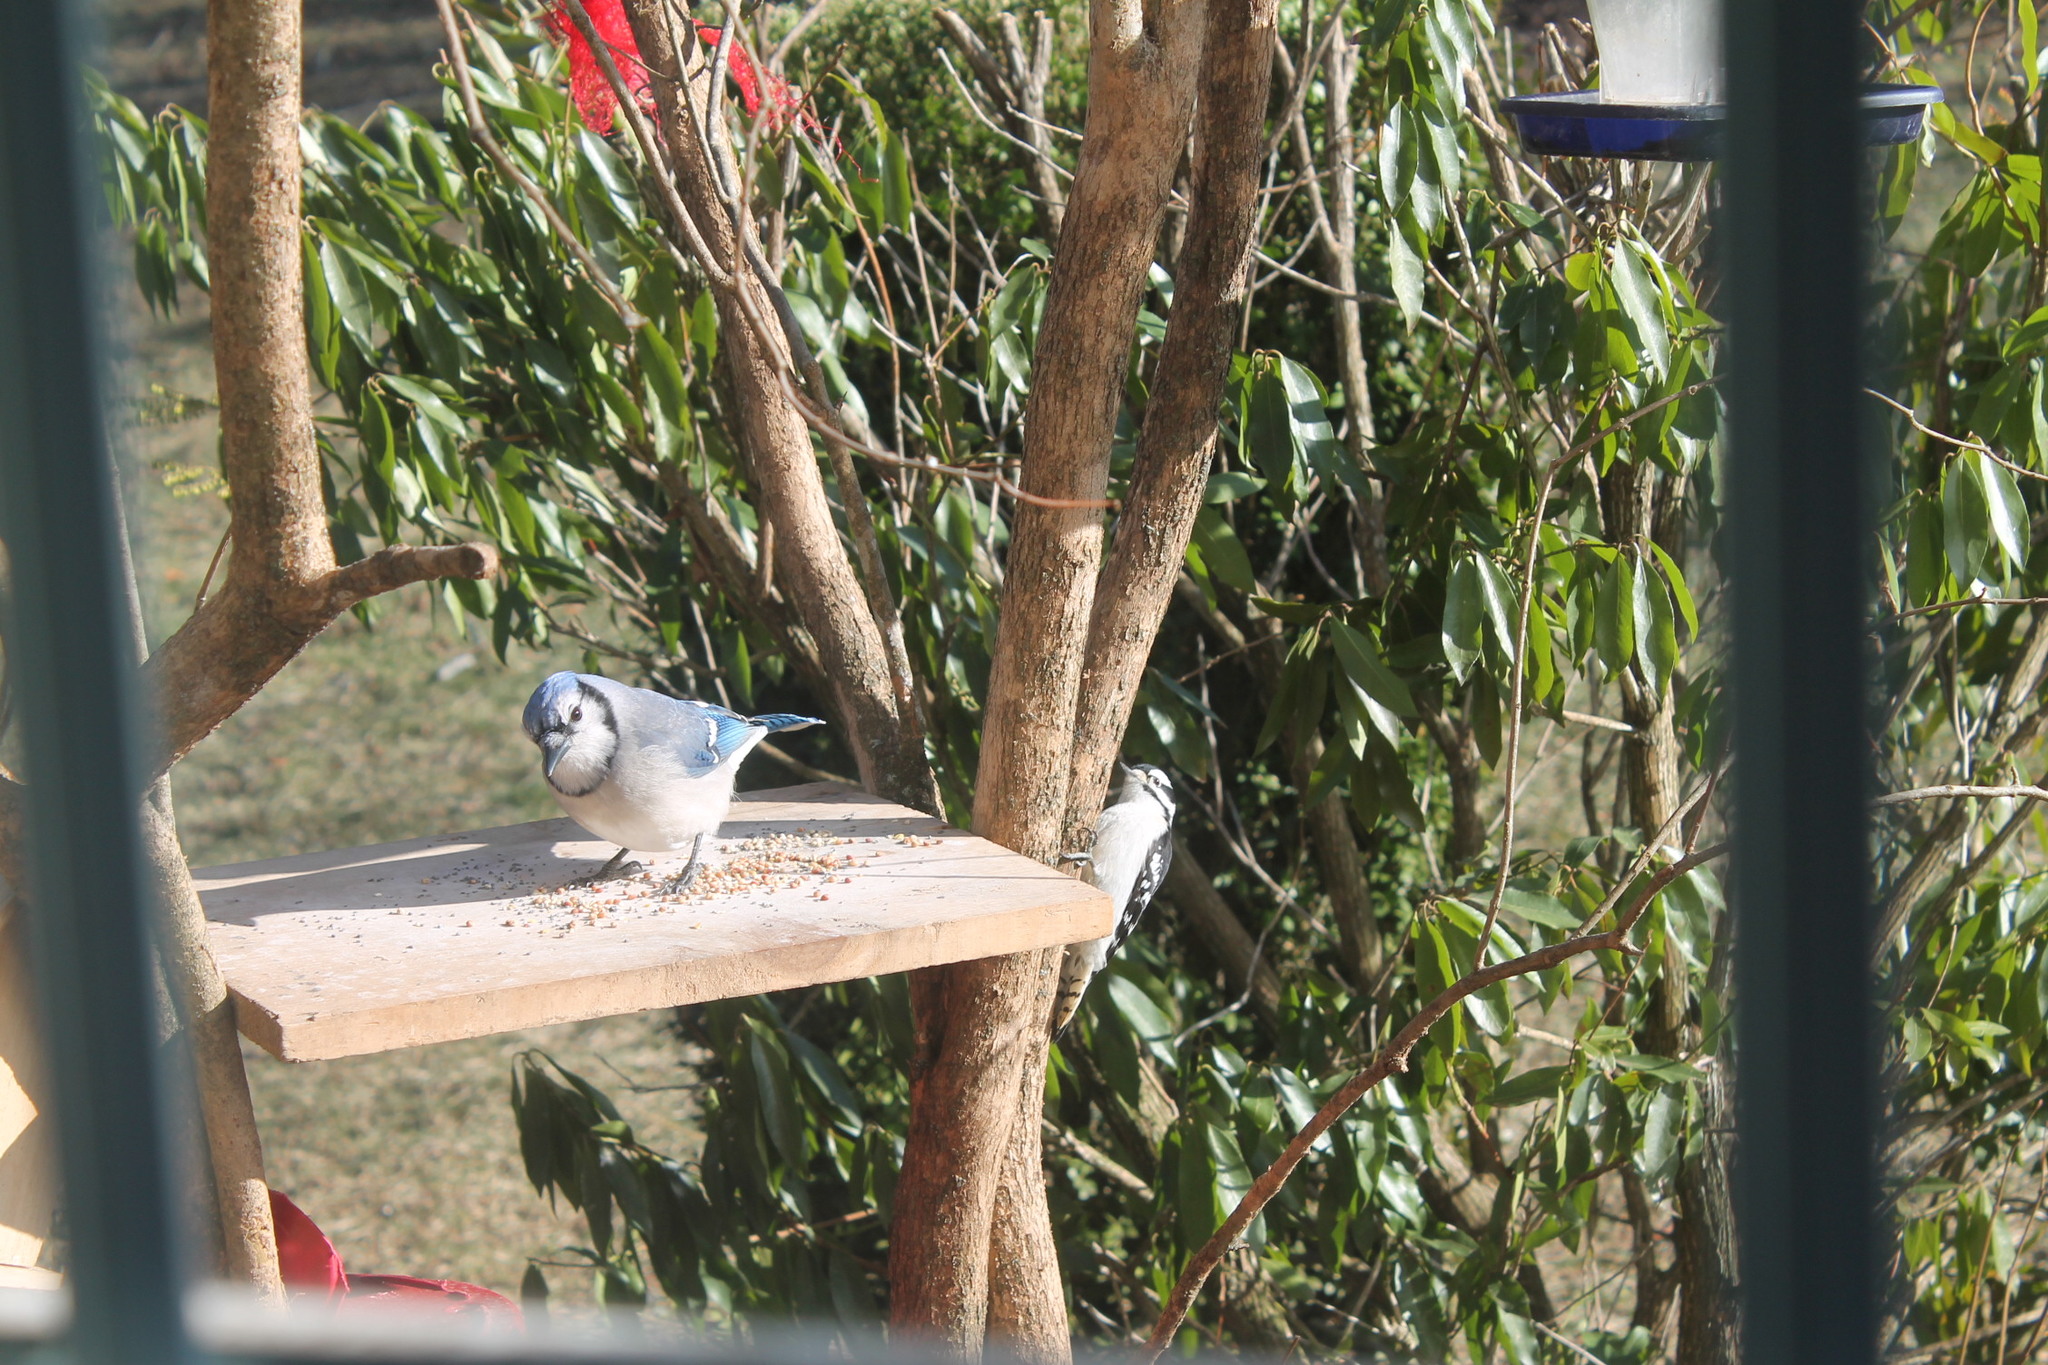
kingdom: Animalia
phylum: Chordata
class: Aves
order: Passeriformes
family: Corvidae
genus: Cyanocitta
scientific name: Cyanocitta cristata
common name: Blue jay
